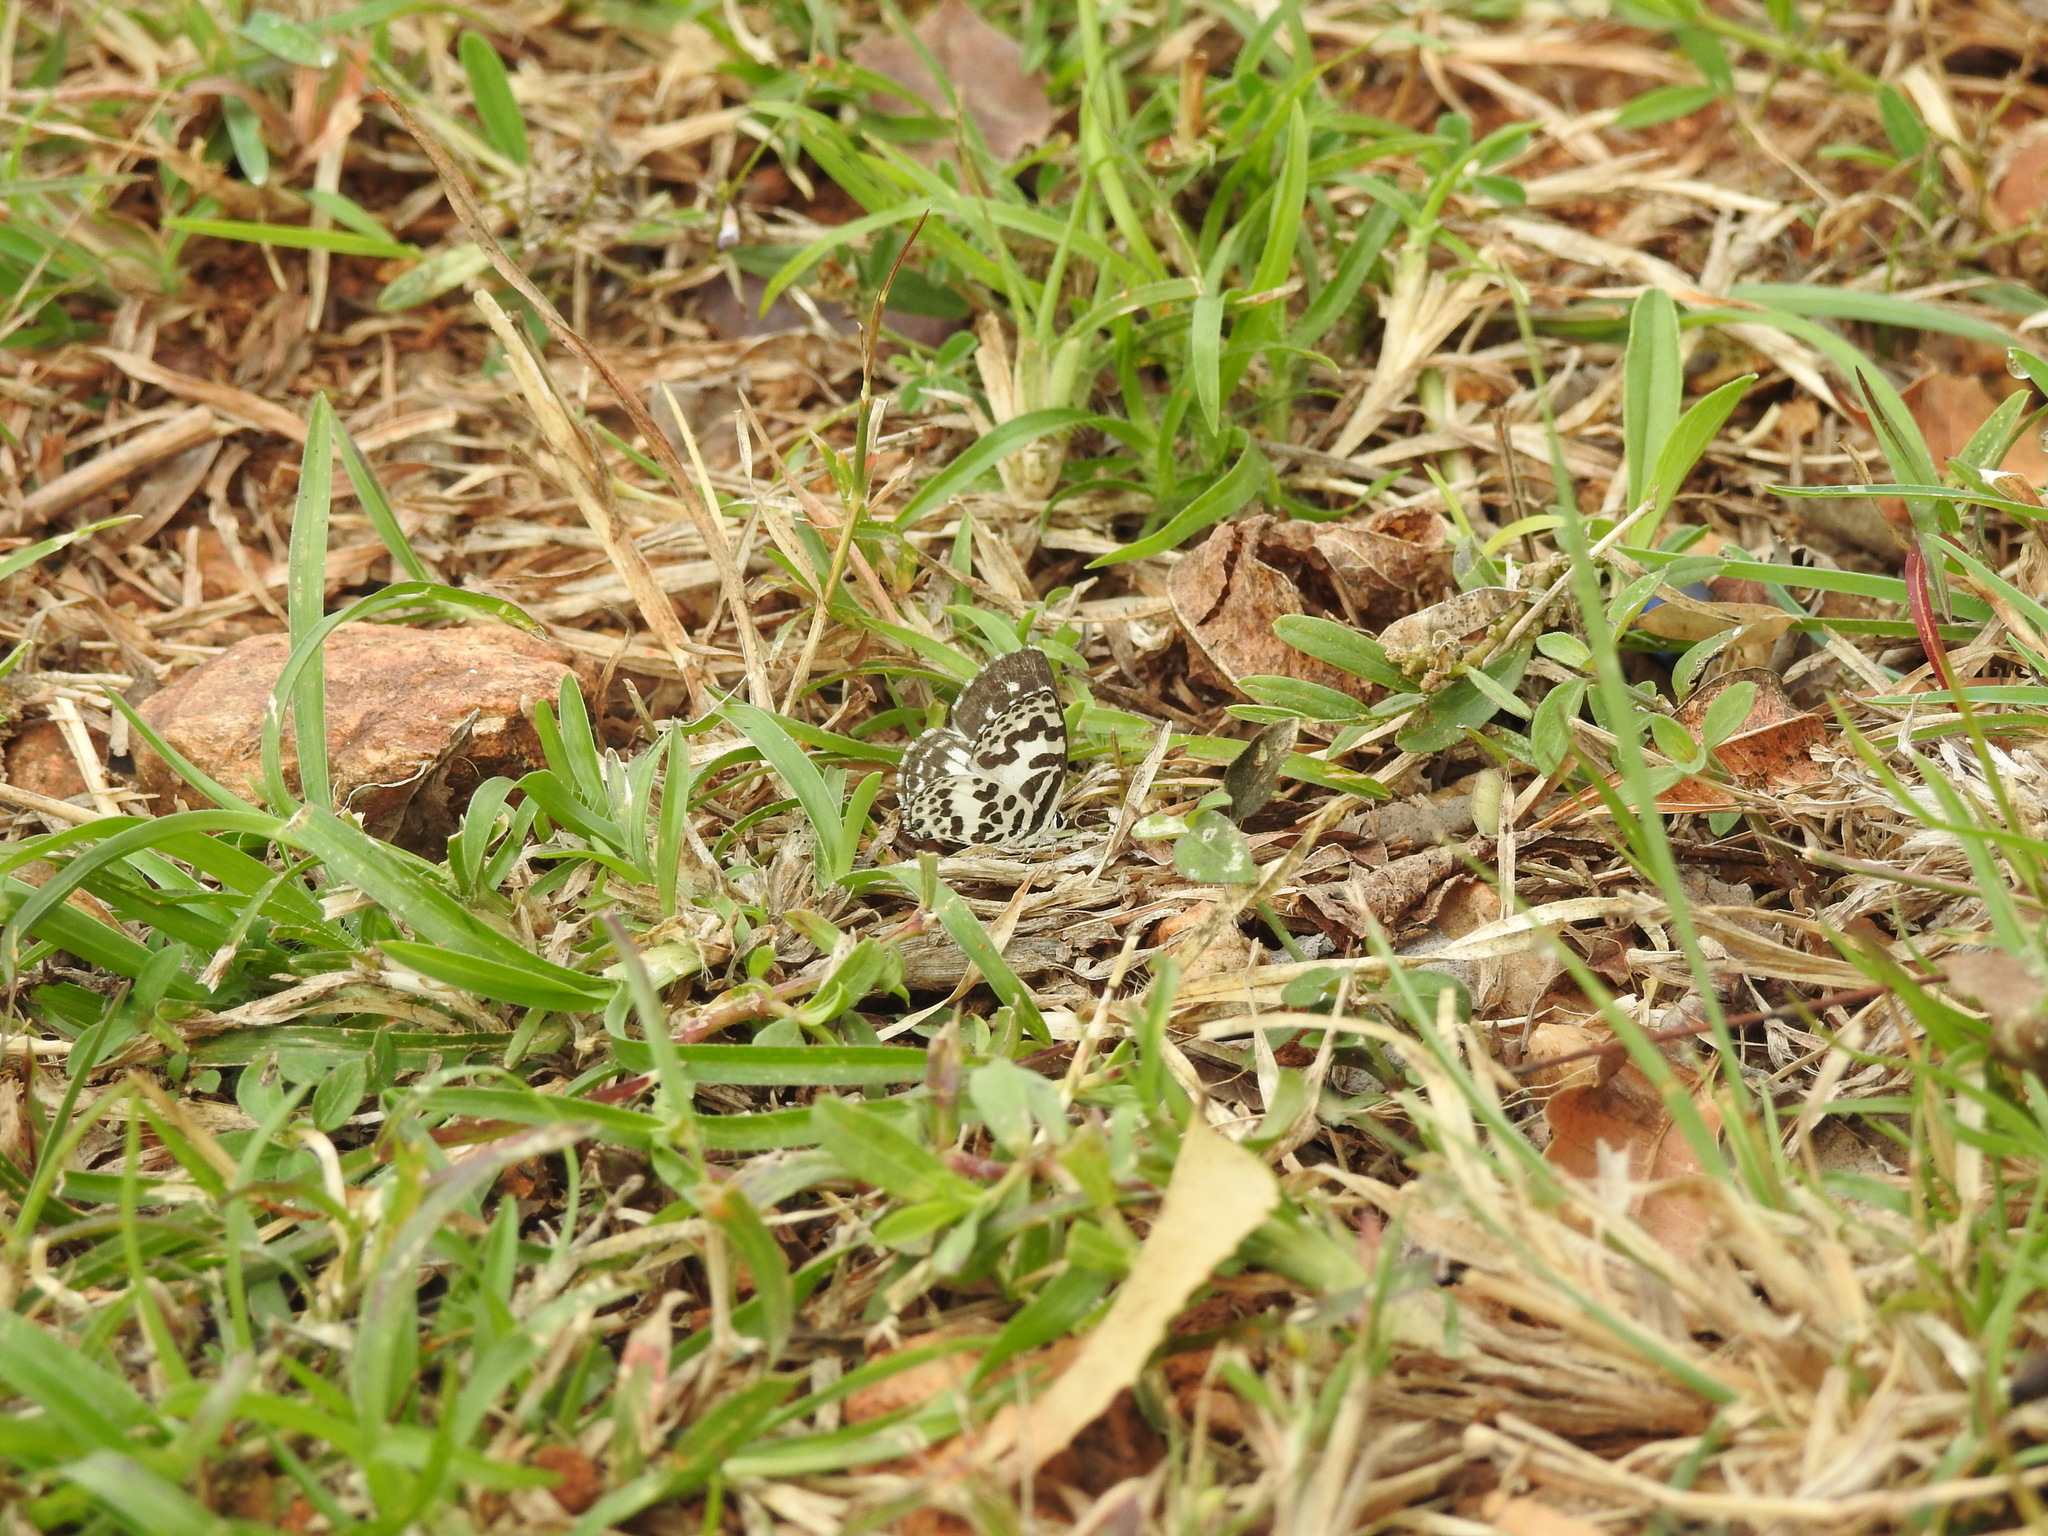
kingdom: Animalia
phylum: Arthropoda
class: Insecta
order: Lepidoptera
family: Lycaenidae
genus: Castalius
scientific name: Castalius rosimon
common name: Common pierrot
